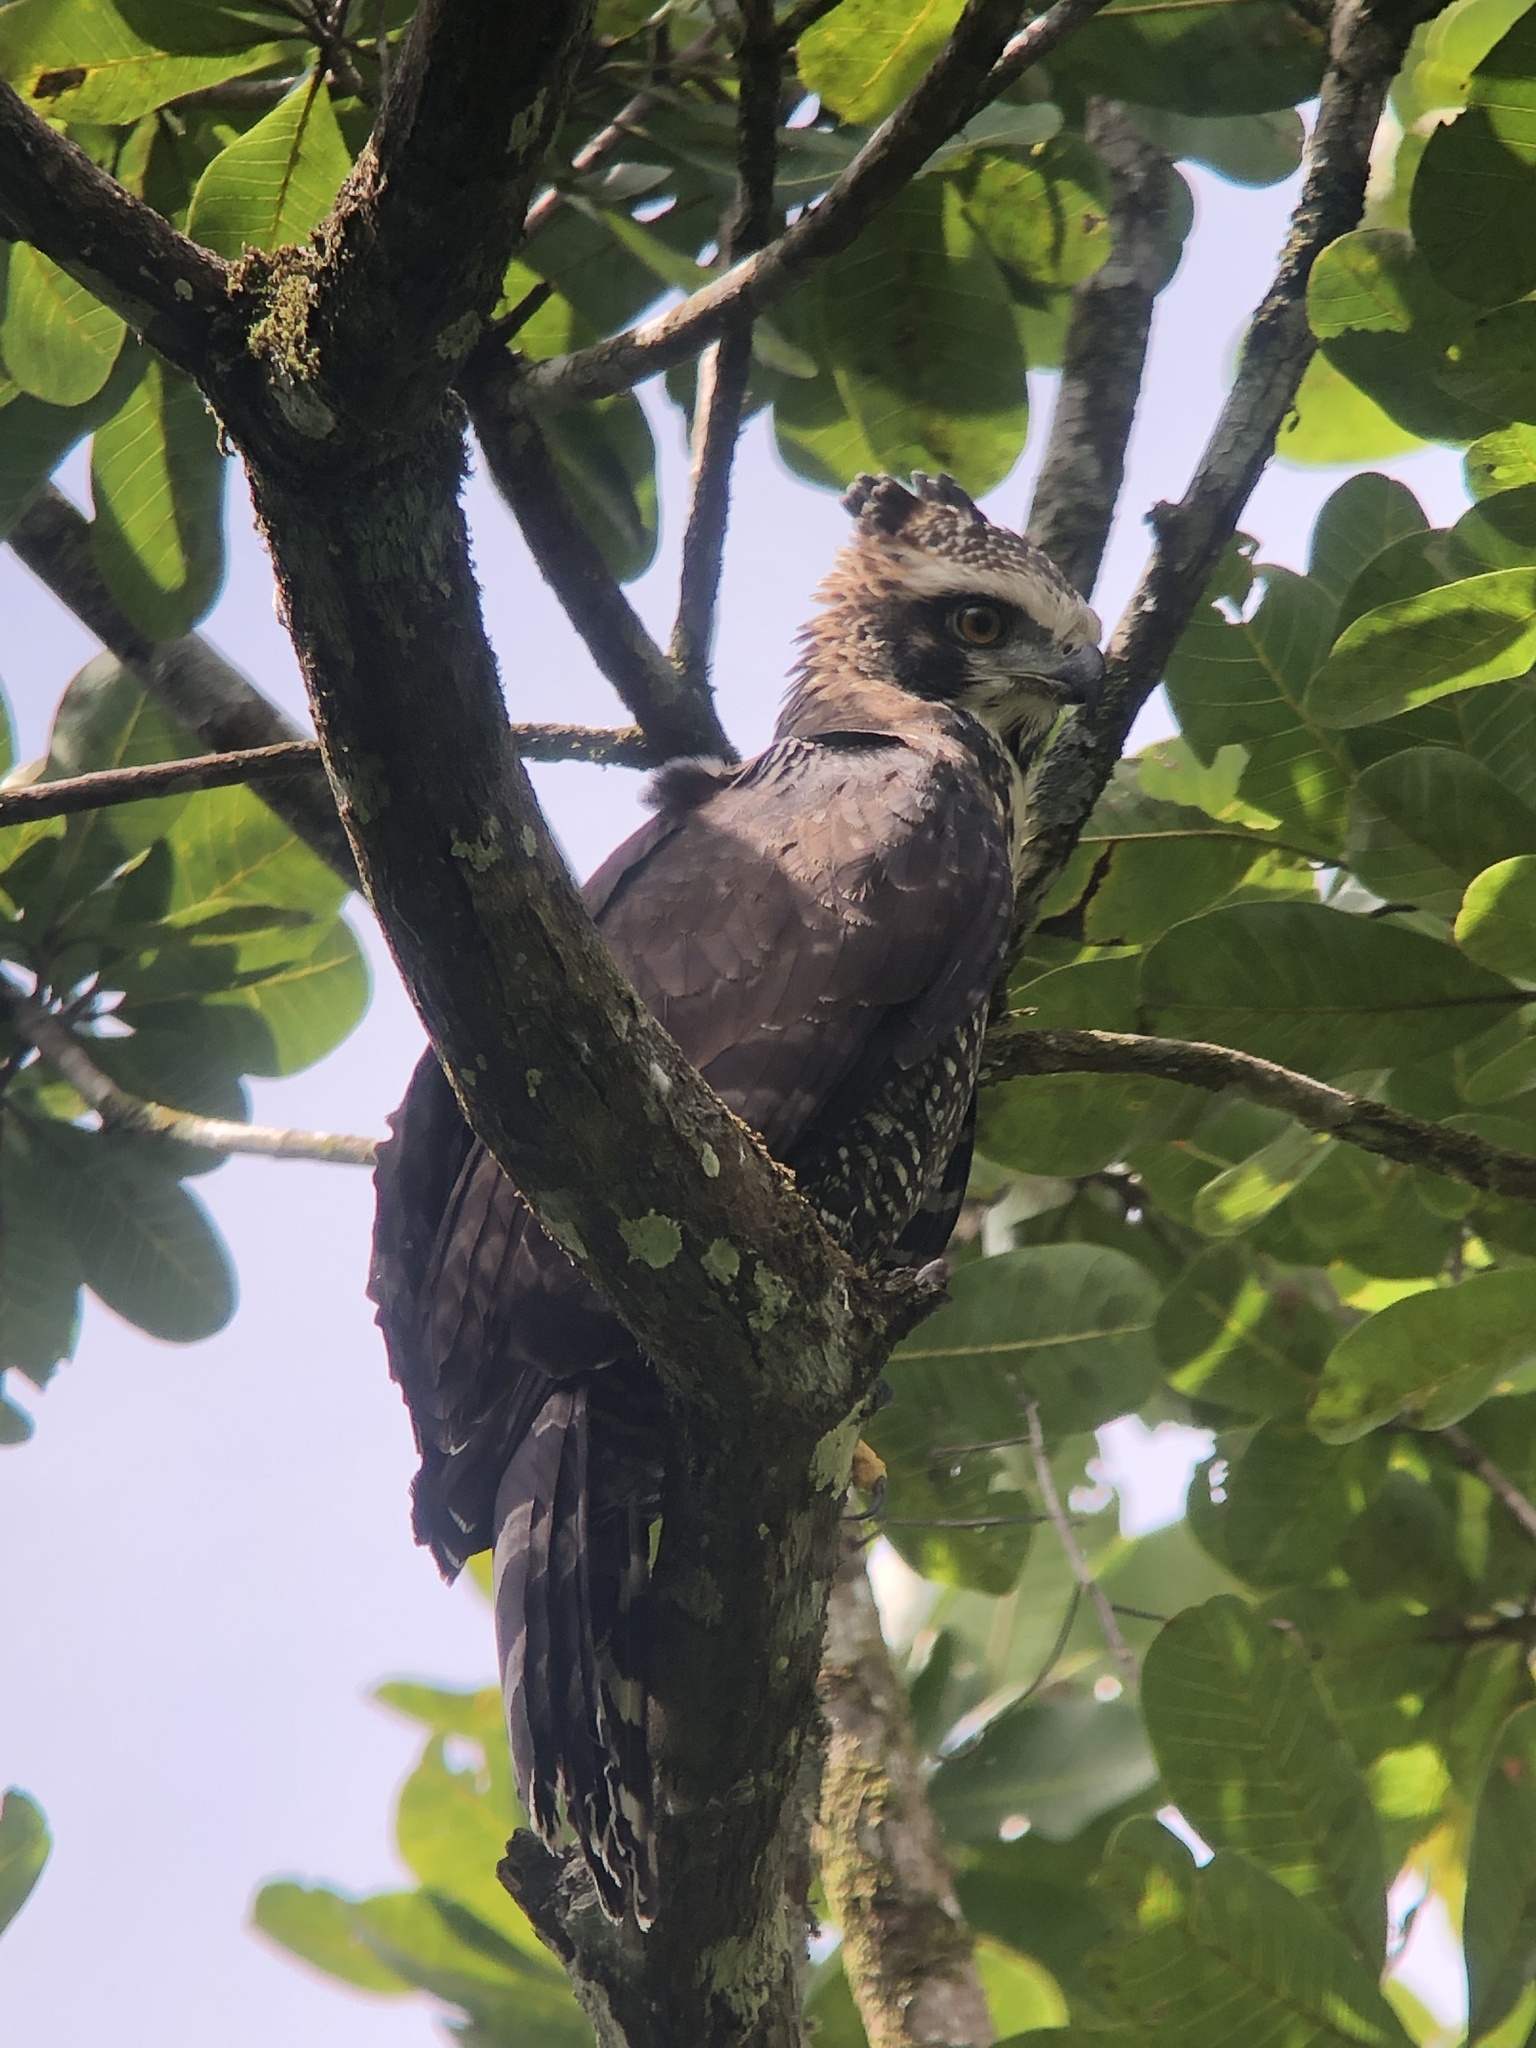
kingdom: Animalia
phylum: Chordata
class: Aves
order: Accipitriformes
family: Accipitridae
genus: Spizaetus
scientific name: Spizaetus tyrannus
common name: Black hawk-eagle
